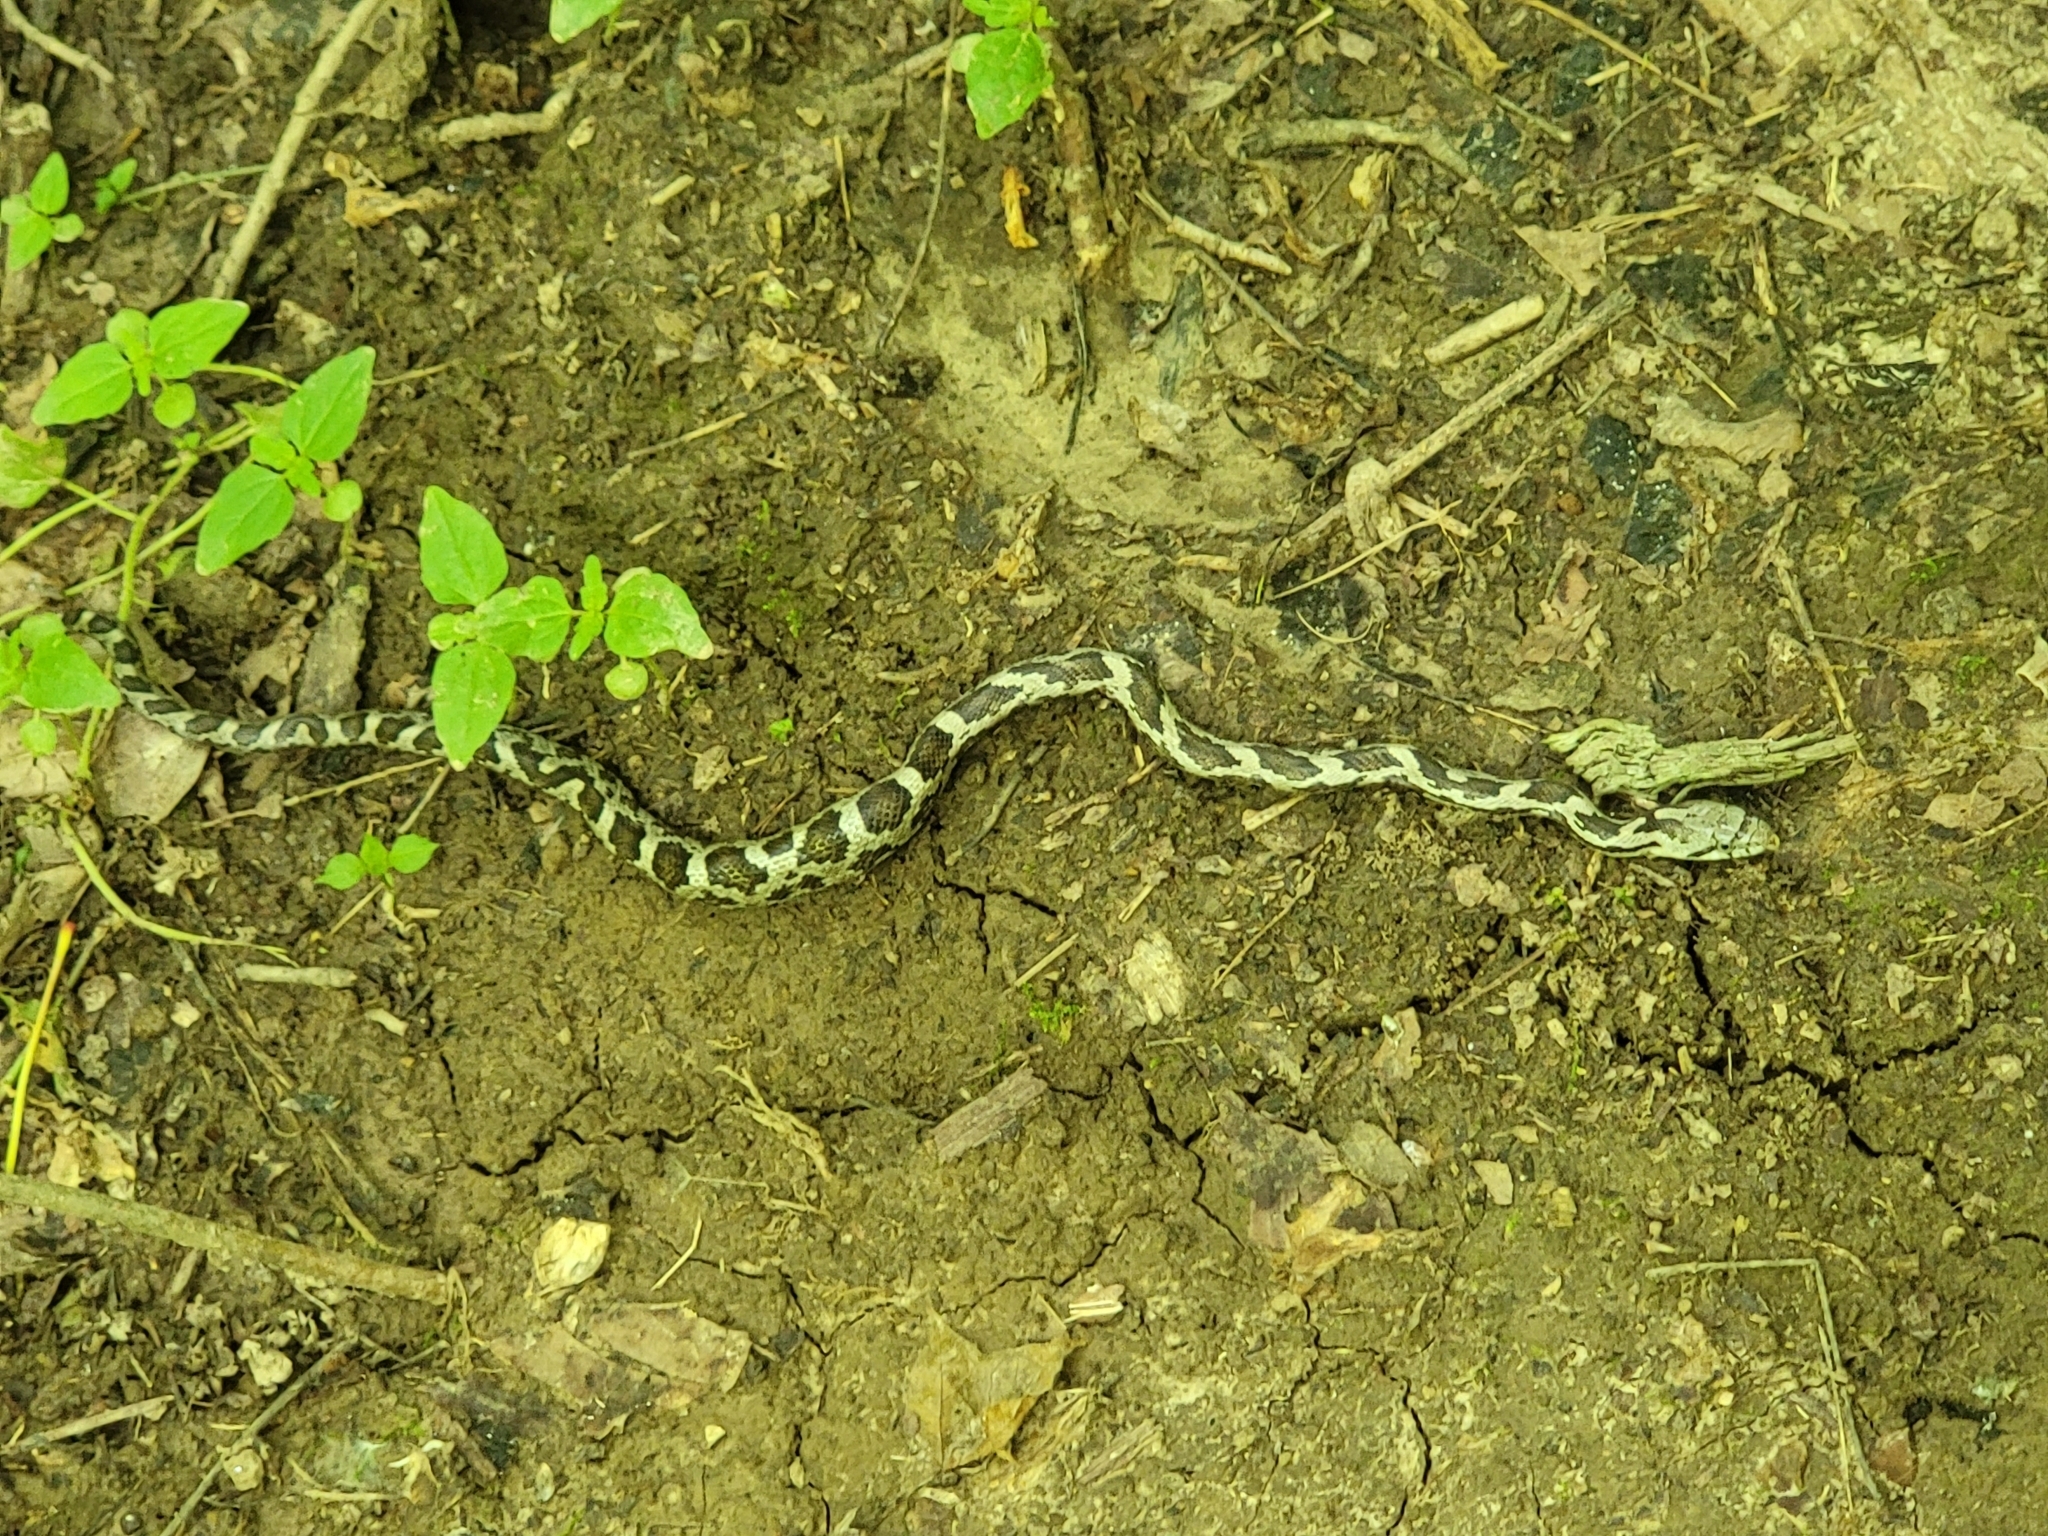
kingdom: Animalia
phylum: Chordata
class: Squamata
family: Colubridae
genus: Pantherophis
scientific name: Pantherophis spiloides
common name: Gray rat snake
